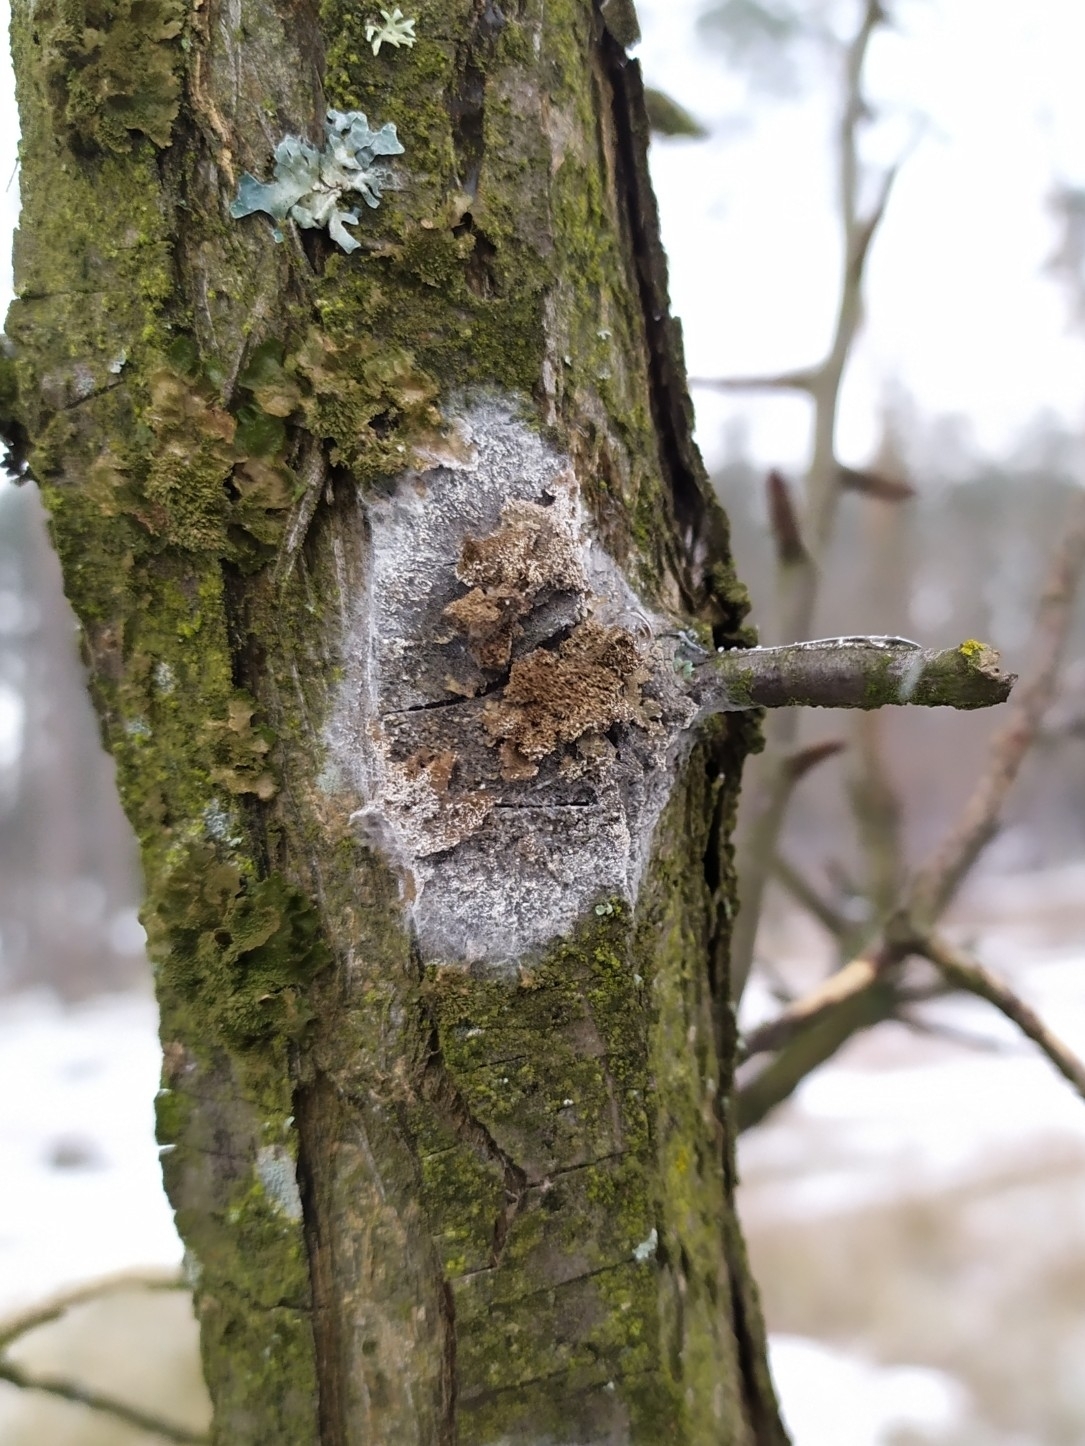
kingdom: Fungi
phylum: Basidiomycota
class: Agaricomycetes
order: Atheliales
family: Atheliaceae
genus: Athelia
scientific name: Athelia arachnoidea
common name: Candelabra duster
